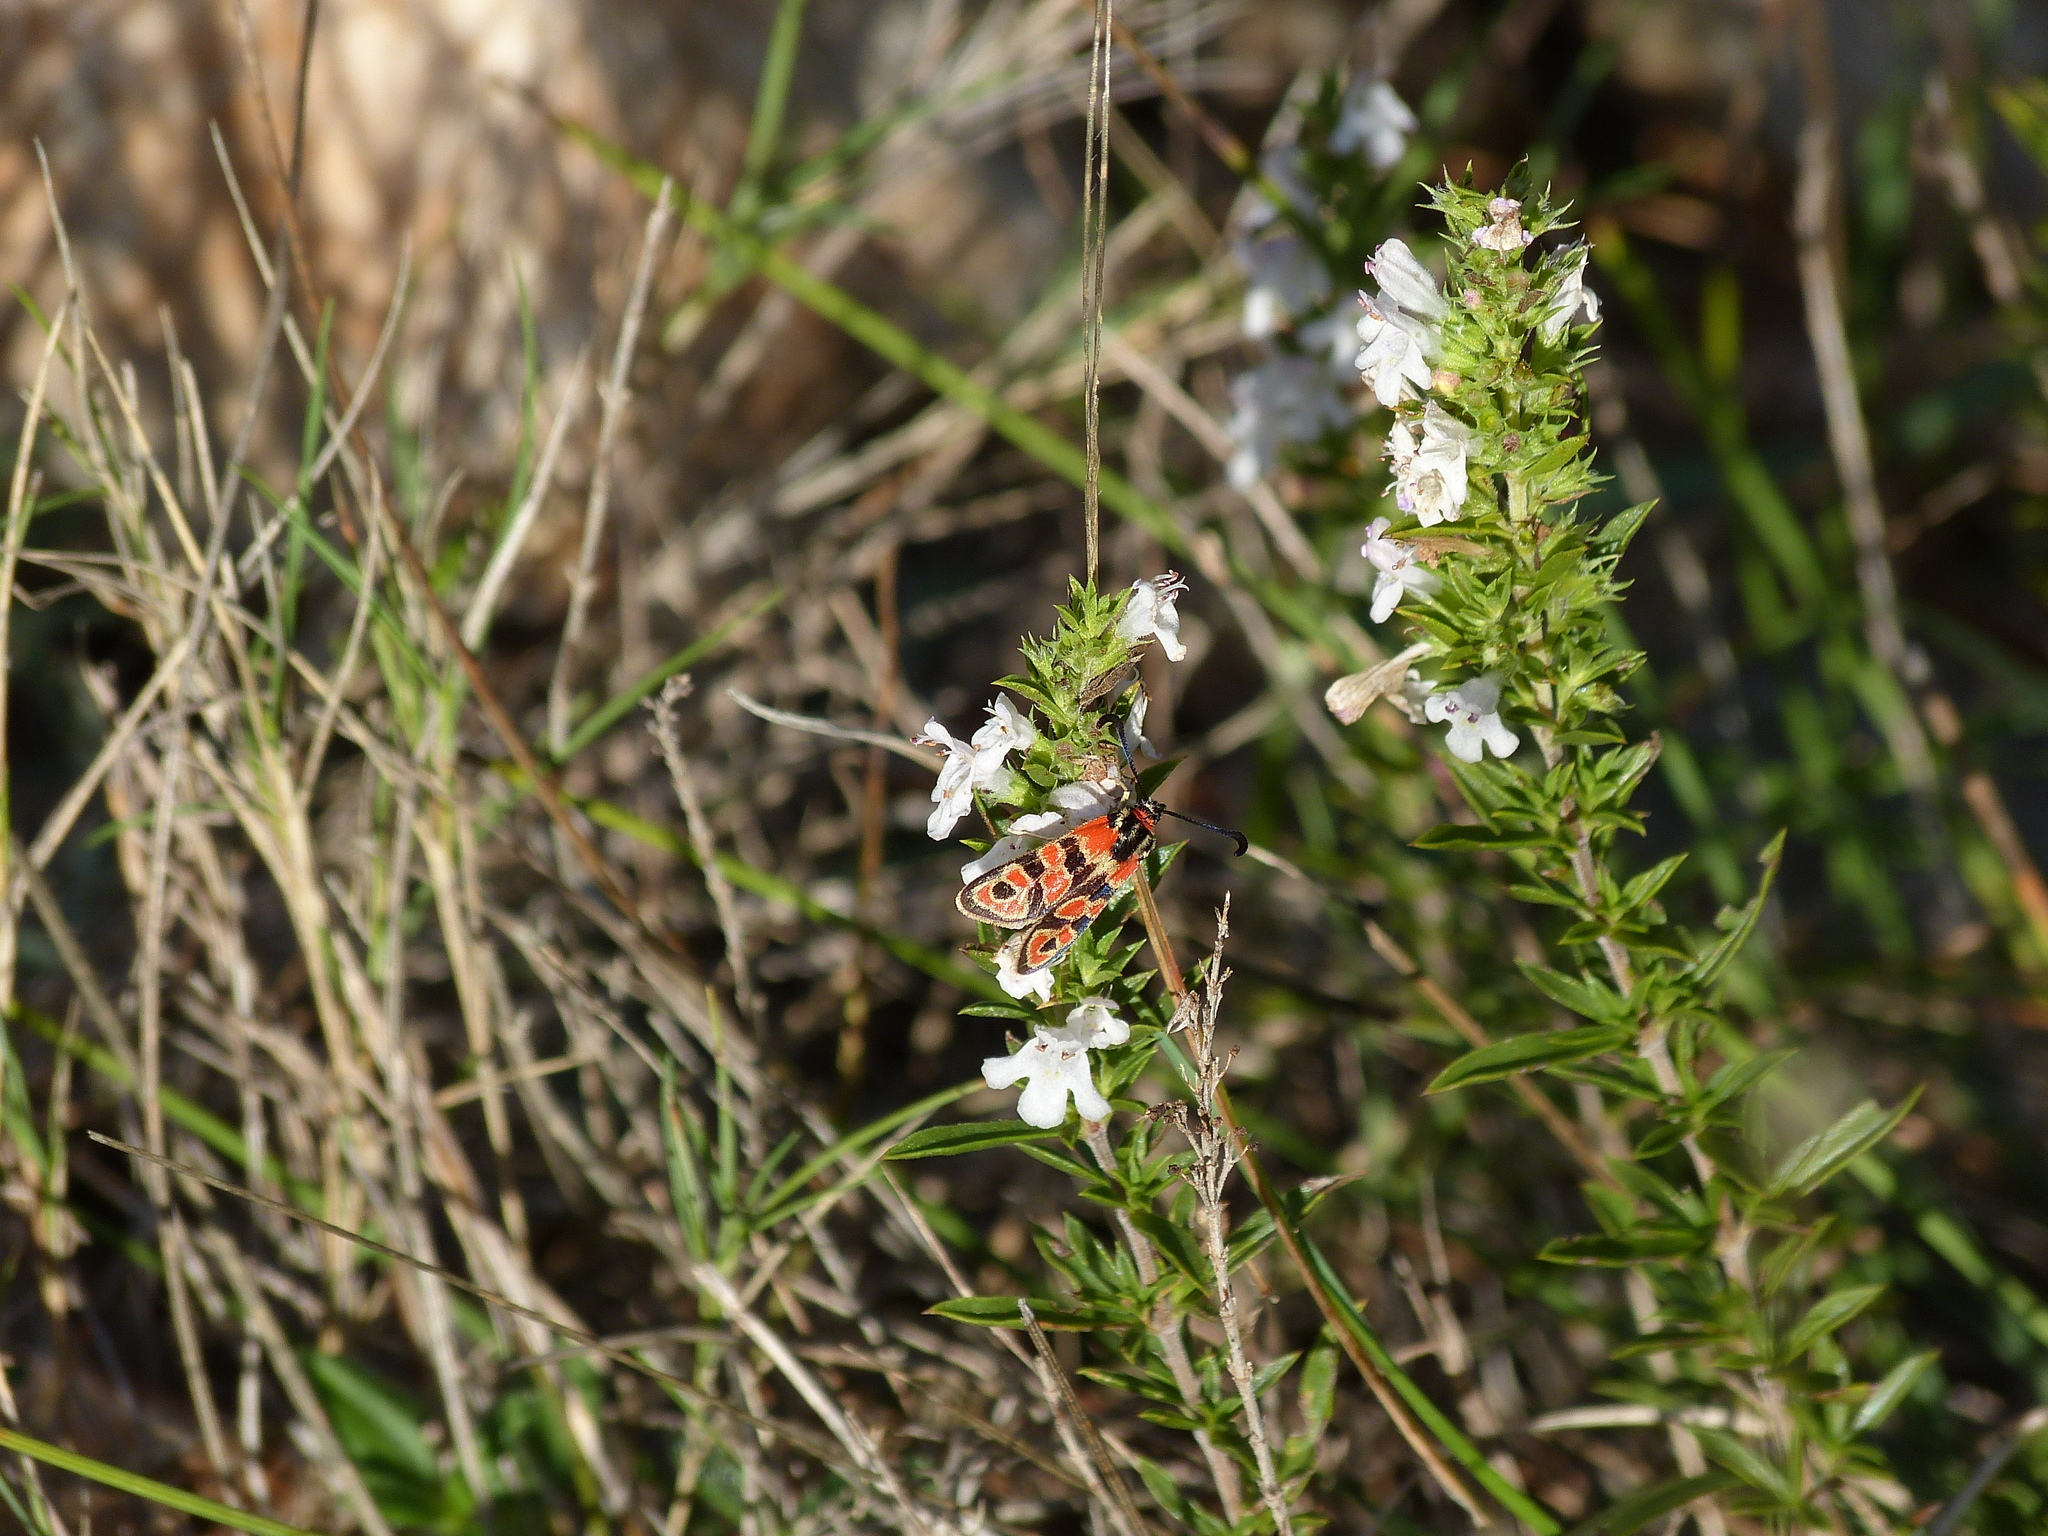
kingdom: Animalia
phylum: Arthropoda
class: Insecta
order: Lepidoptera
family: Zygaenidae
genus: Zygaena
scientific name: Zygaena fausta
